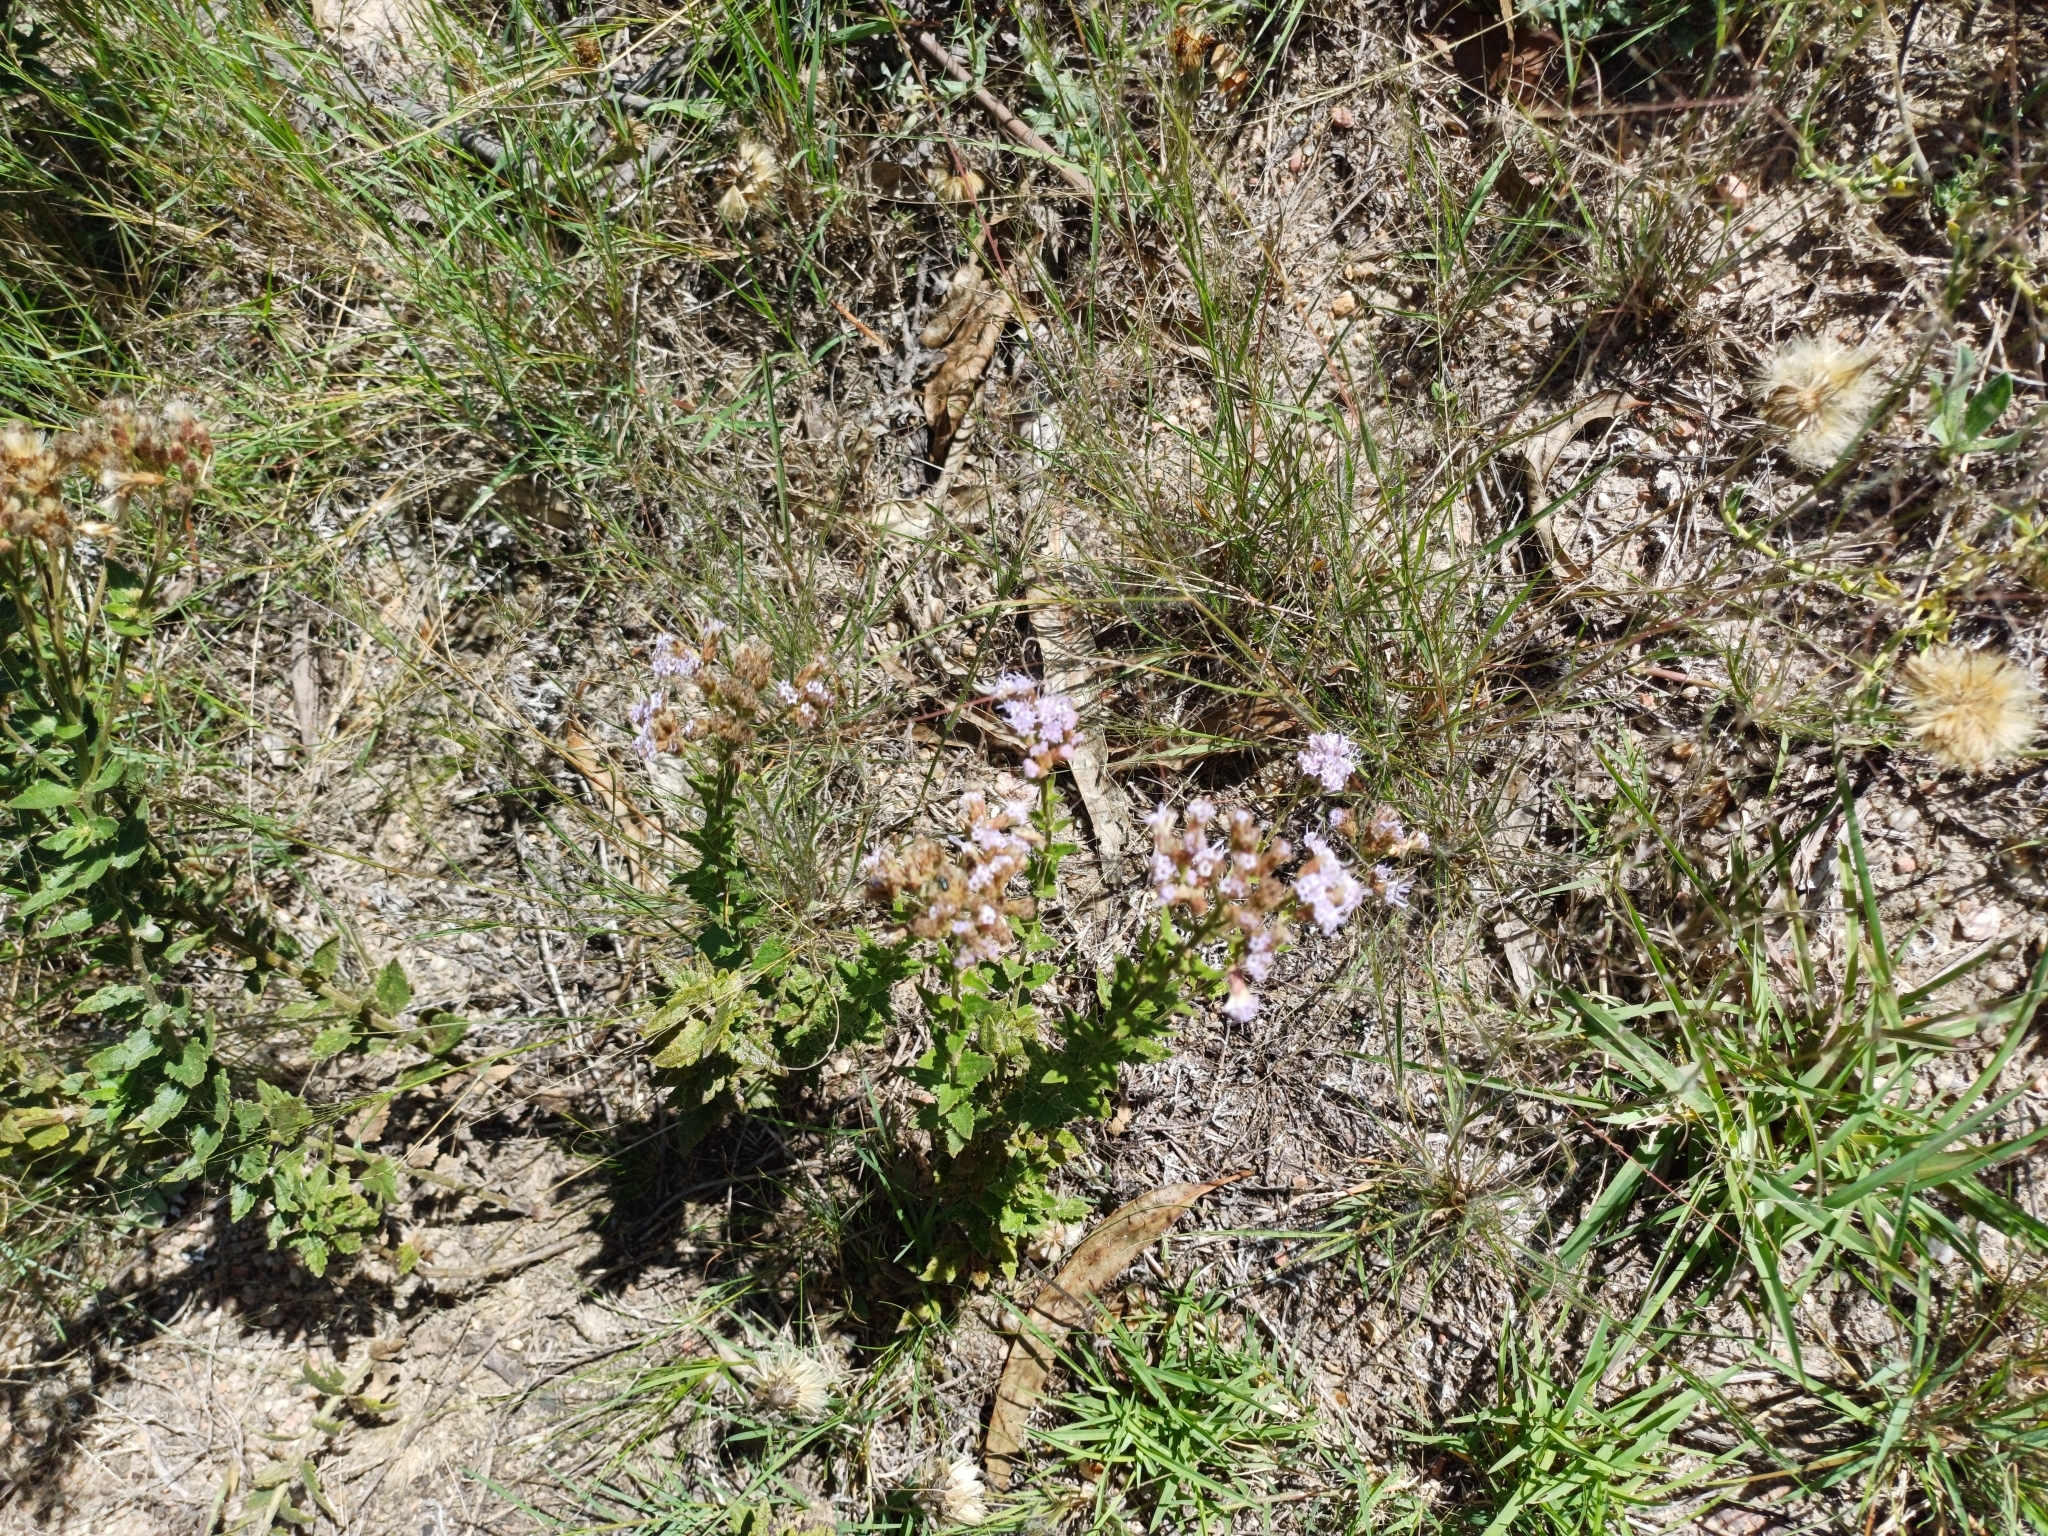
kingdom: Plantae
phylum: Tracheophyta
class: Magnoliopsida
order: Asterales
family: Asteraceae
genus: Chromolaena
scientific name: Chromolaena hirsuta
